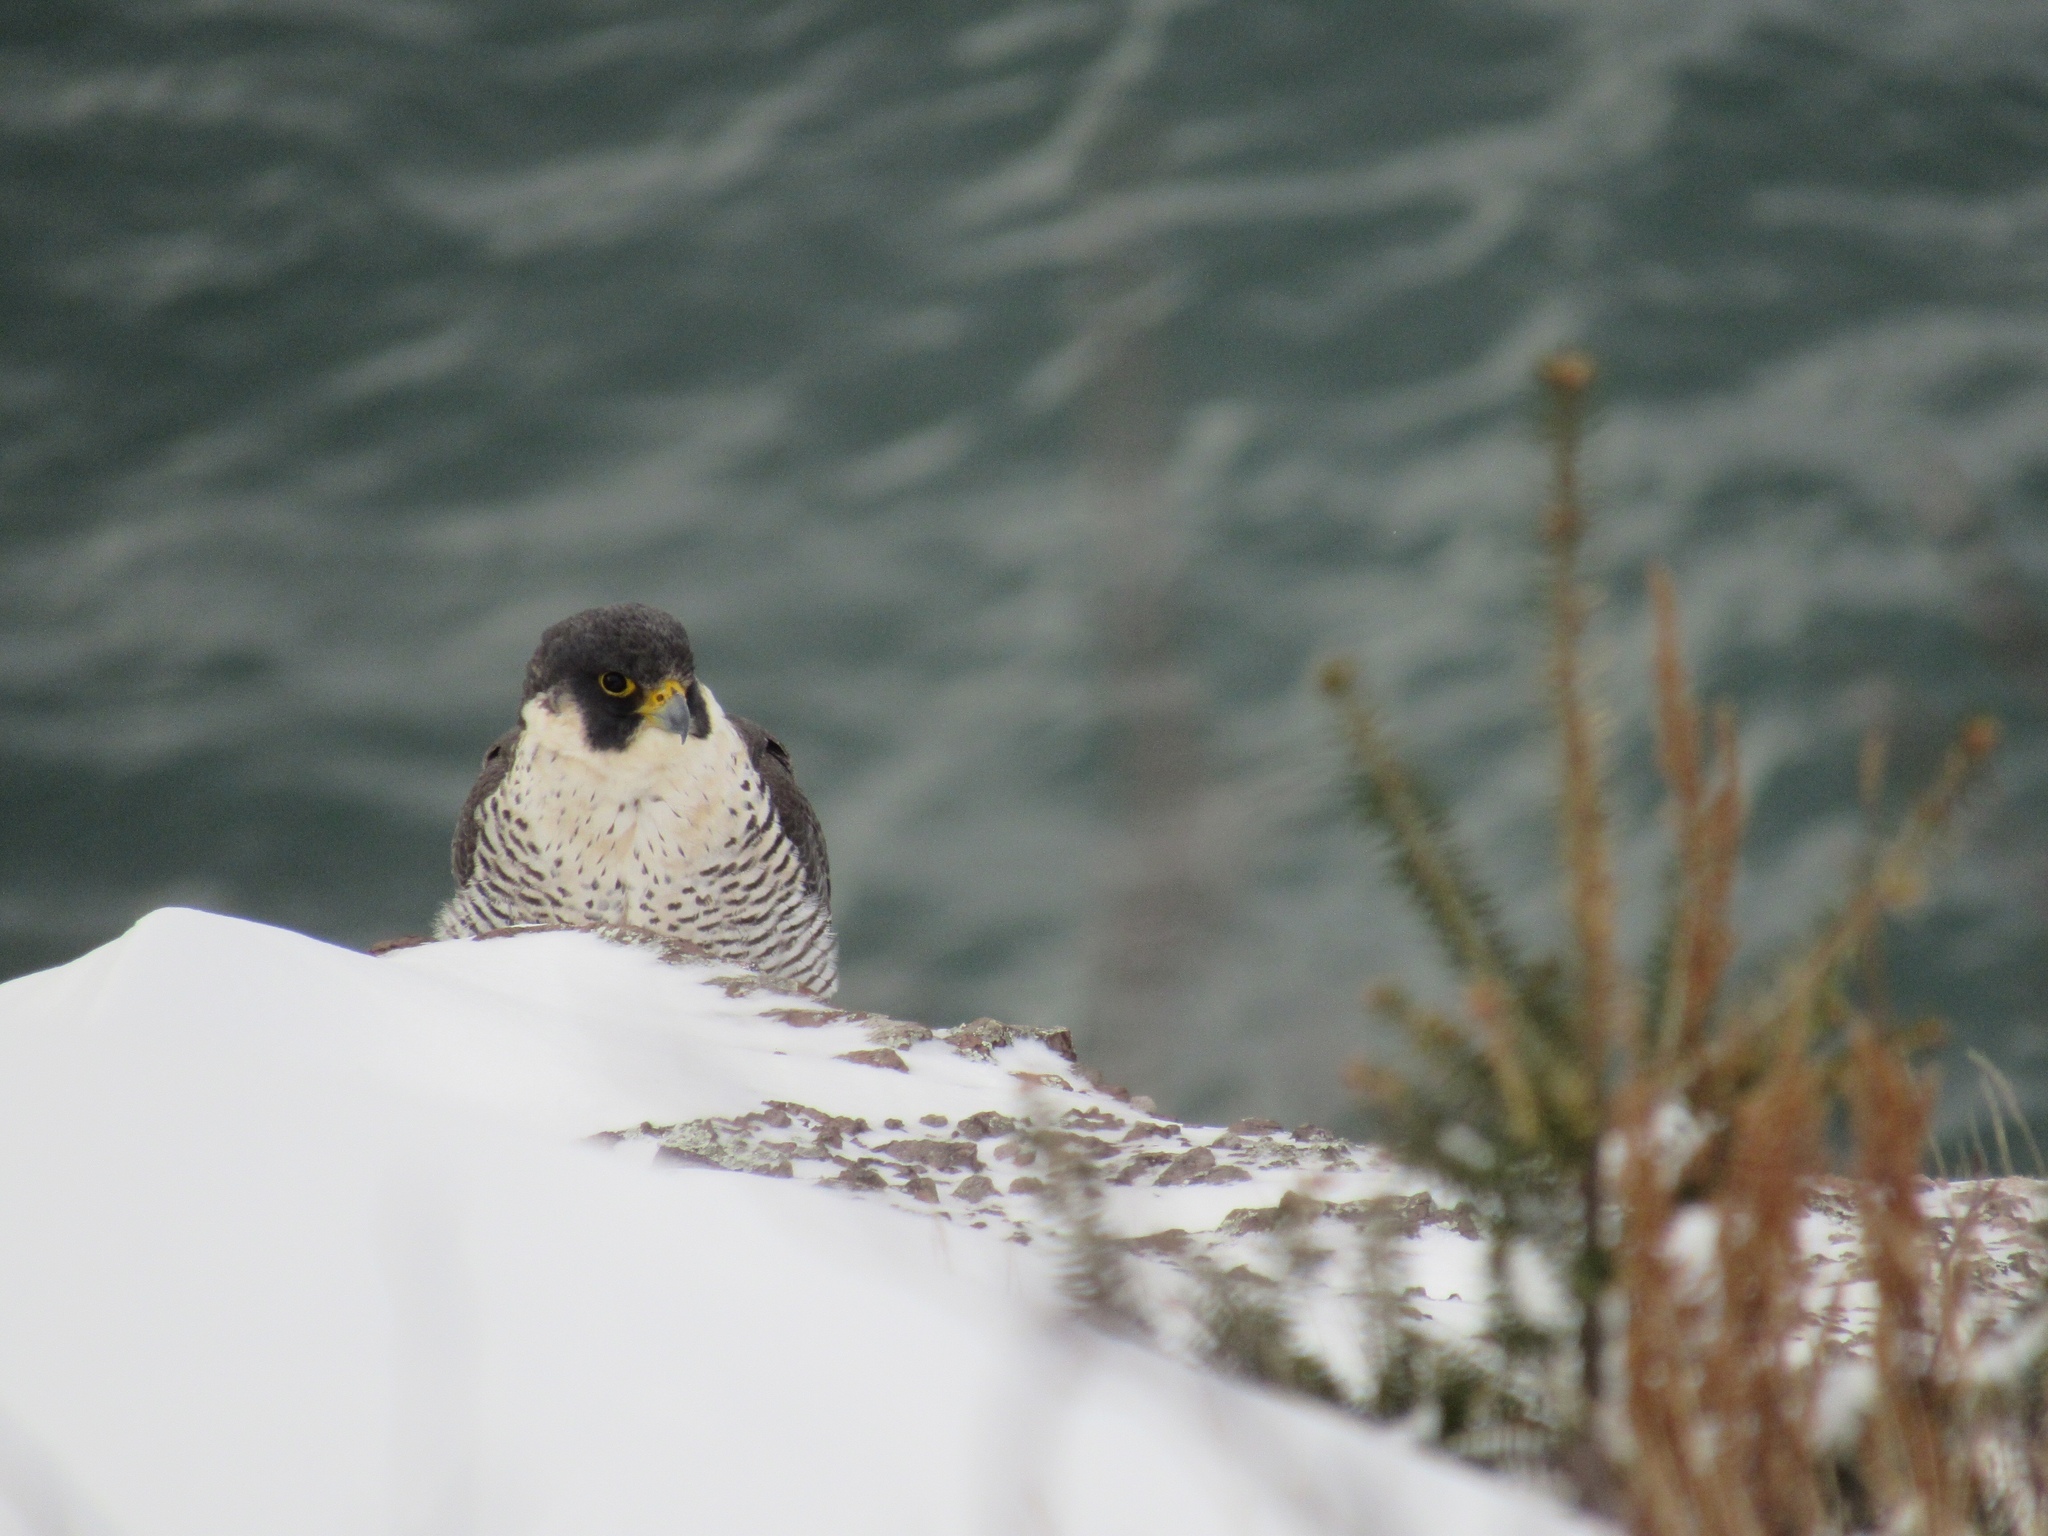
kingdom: Animalia
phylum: Chordata
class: Aves
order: Falconiformes
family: Falconidae
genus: Falco
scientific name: Falco peregrinus
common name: Peregrine falcon
